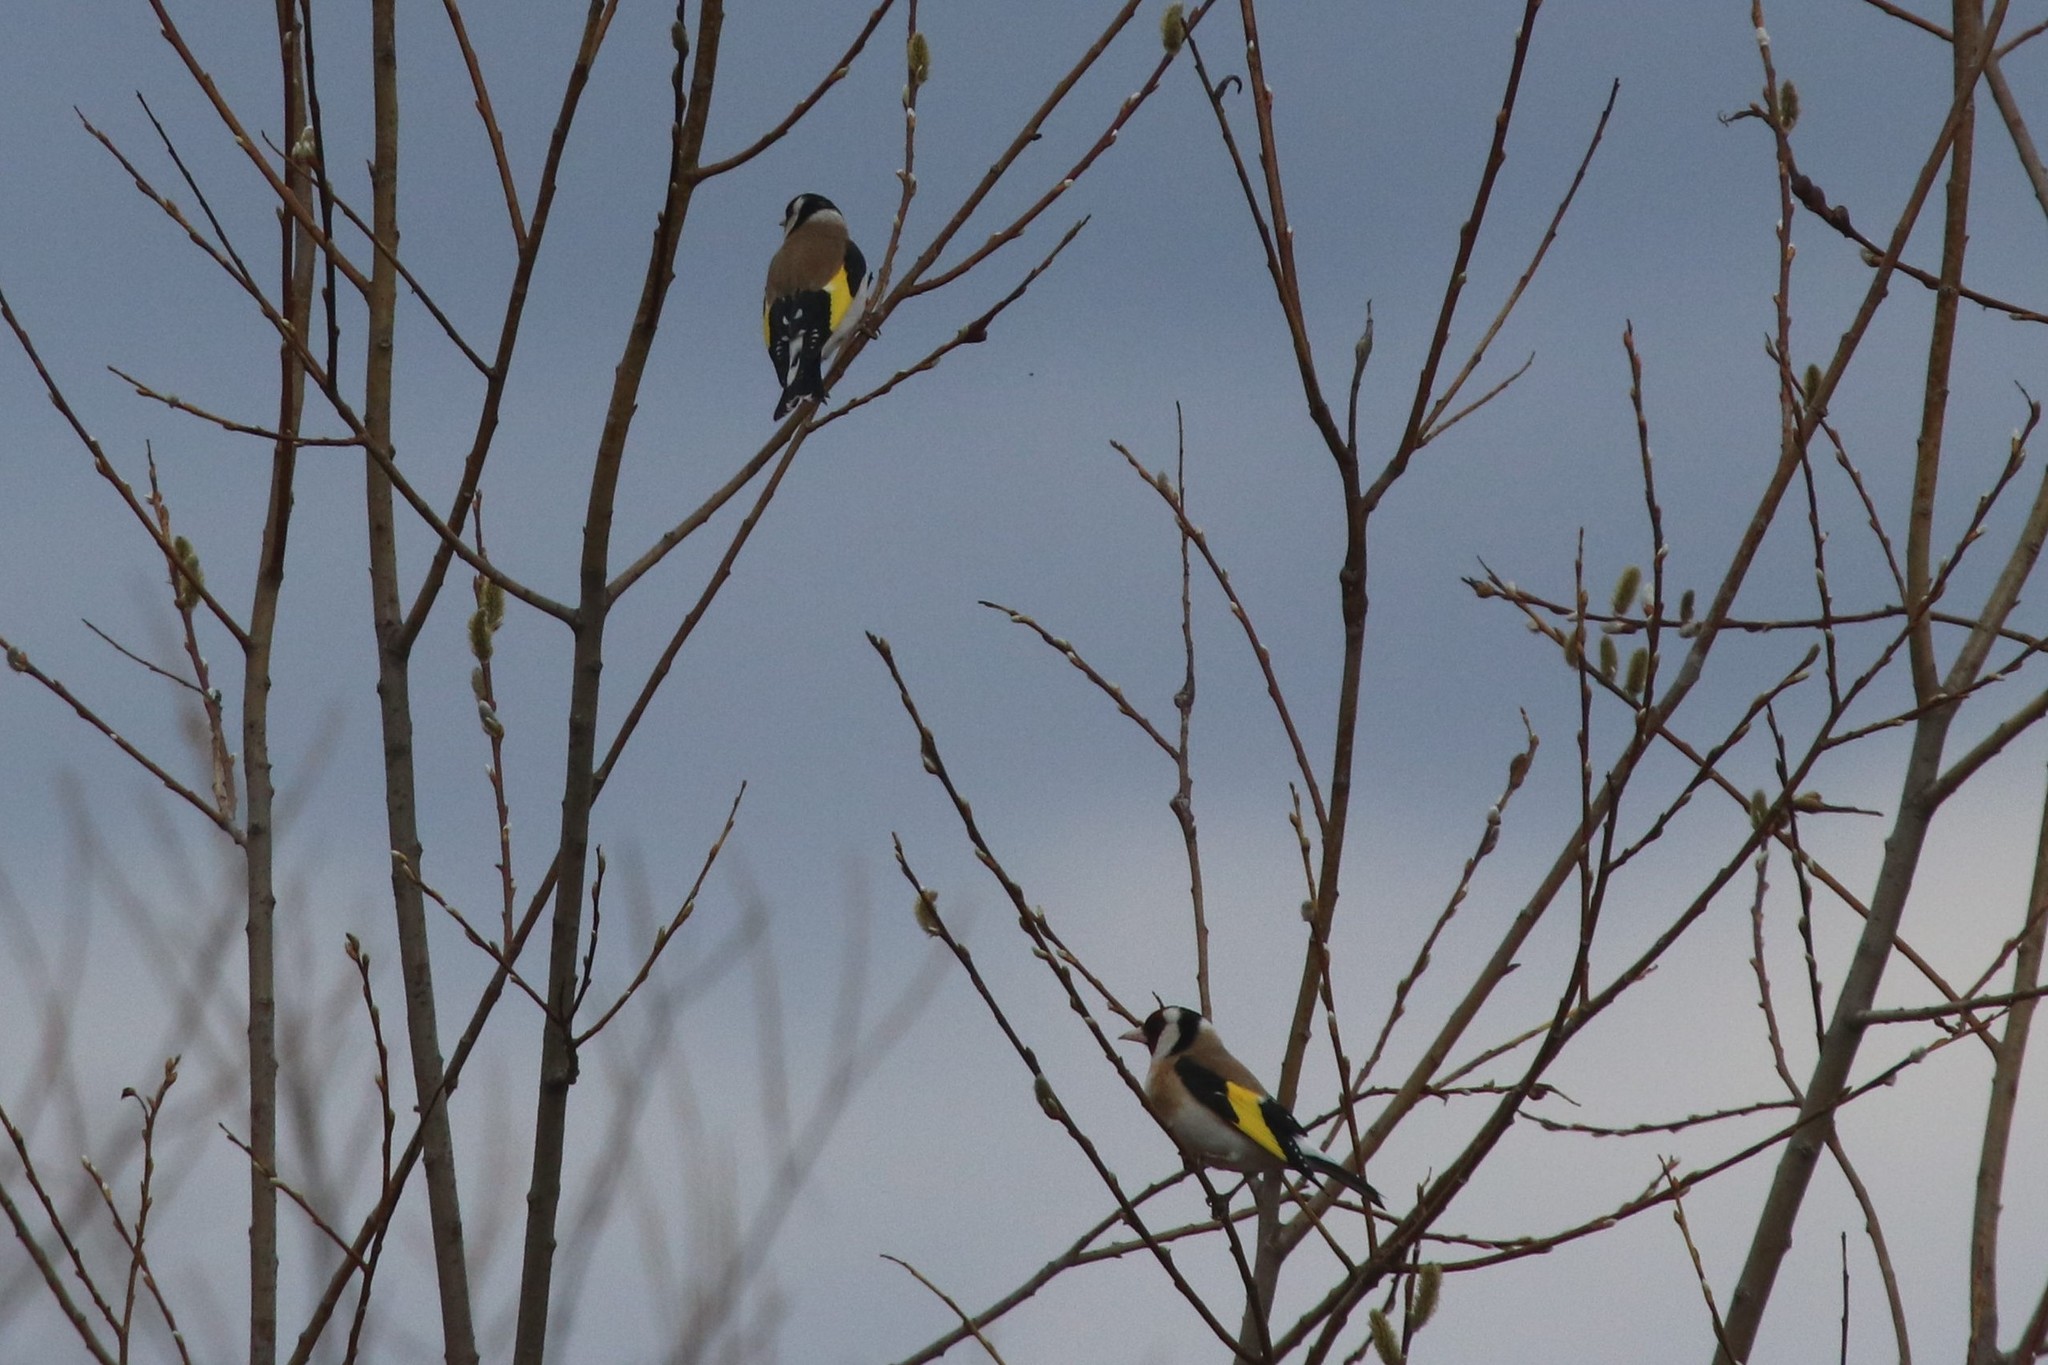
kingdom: Animalia
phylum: Chordata
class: Aves
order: Passeriformes
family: Fringillidae
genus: Carduelis
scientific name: Carduelis carduelis
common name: European goldfinch
